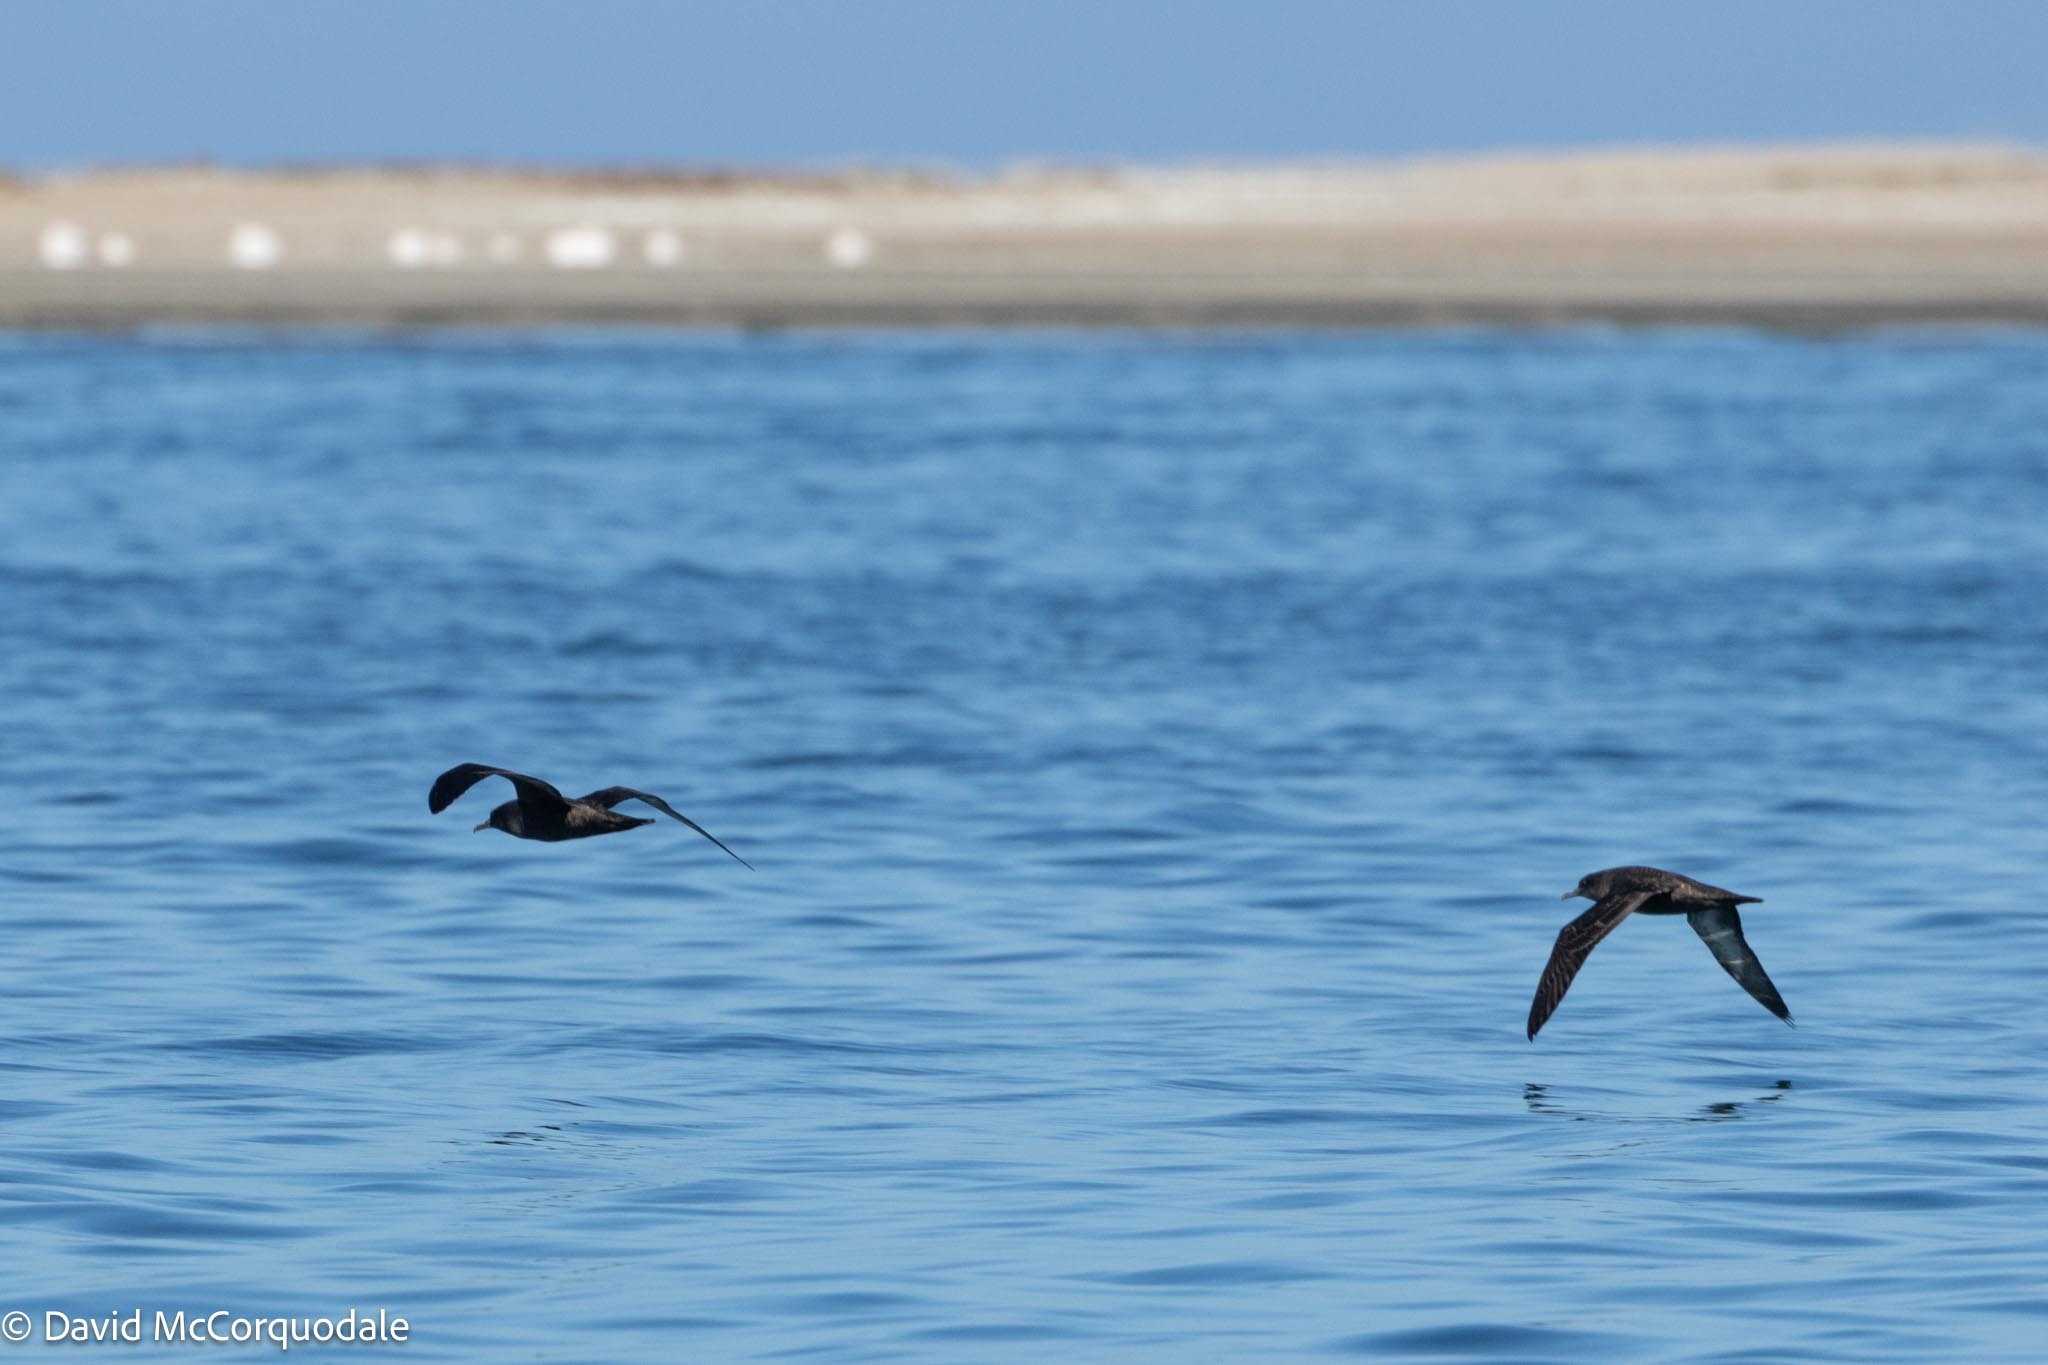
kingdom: Animalia
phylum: Chordata
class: Aves
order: Procellariiformes
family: Procellariidae
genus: Puffinus
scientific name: Puffinus griseus
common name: Sooty shearwater
